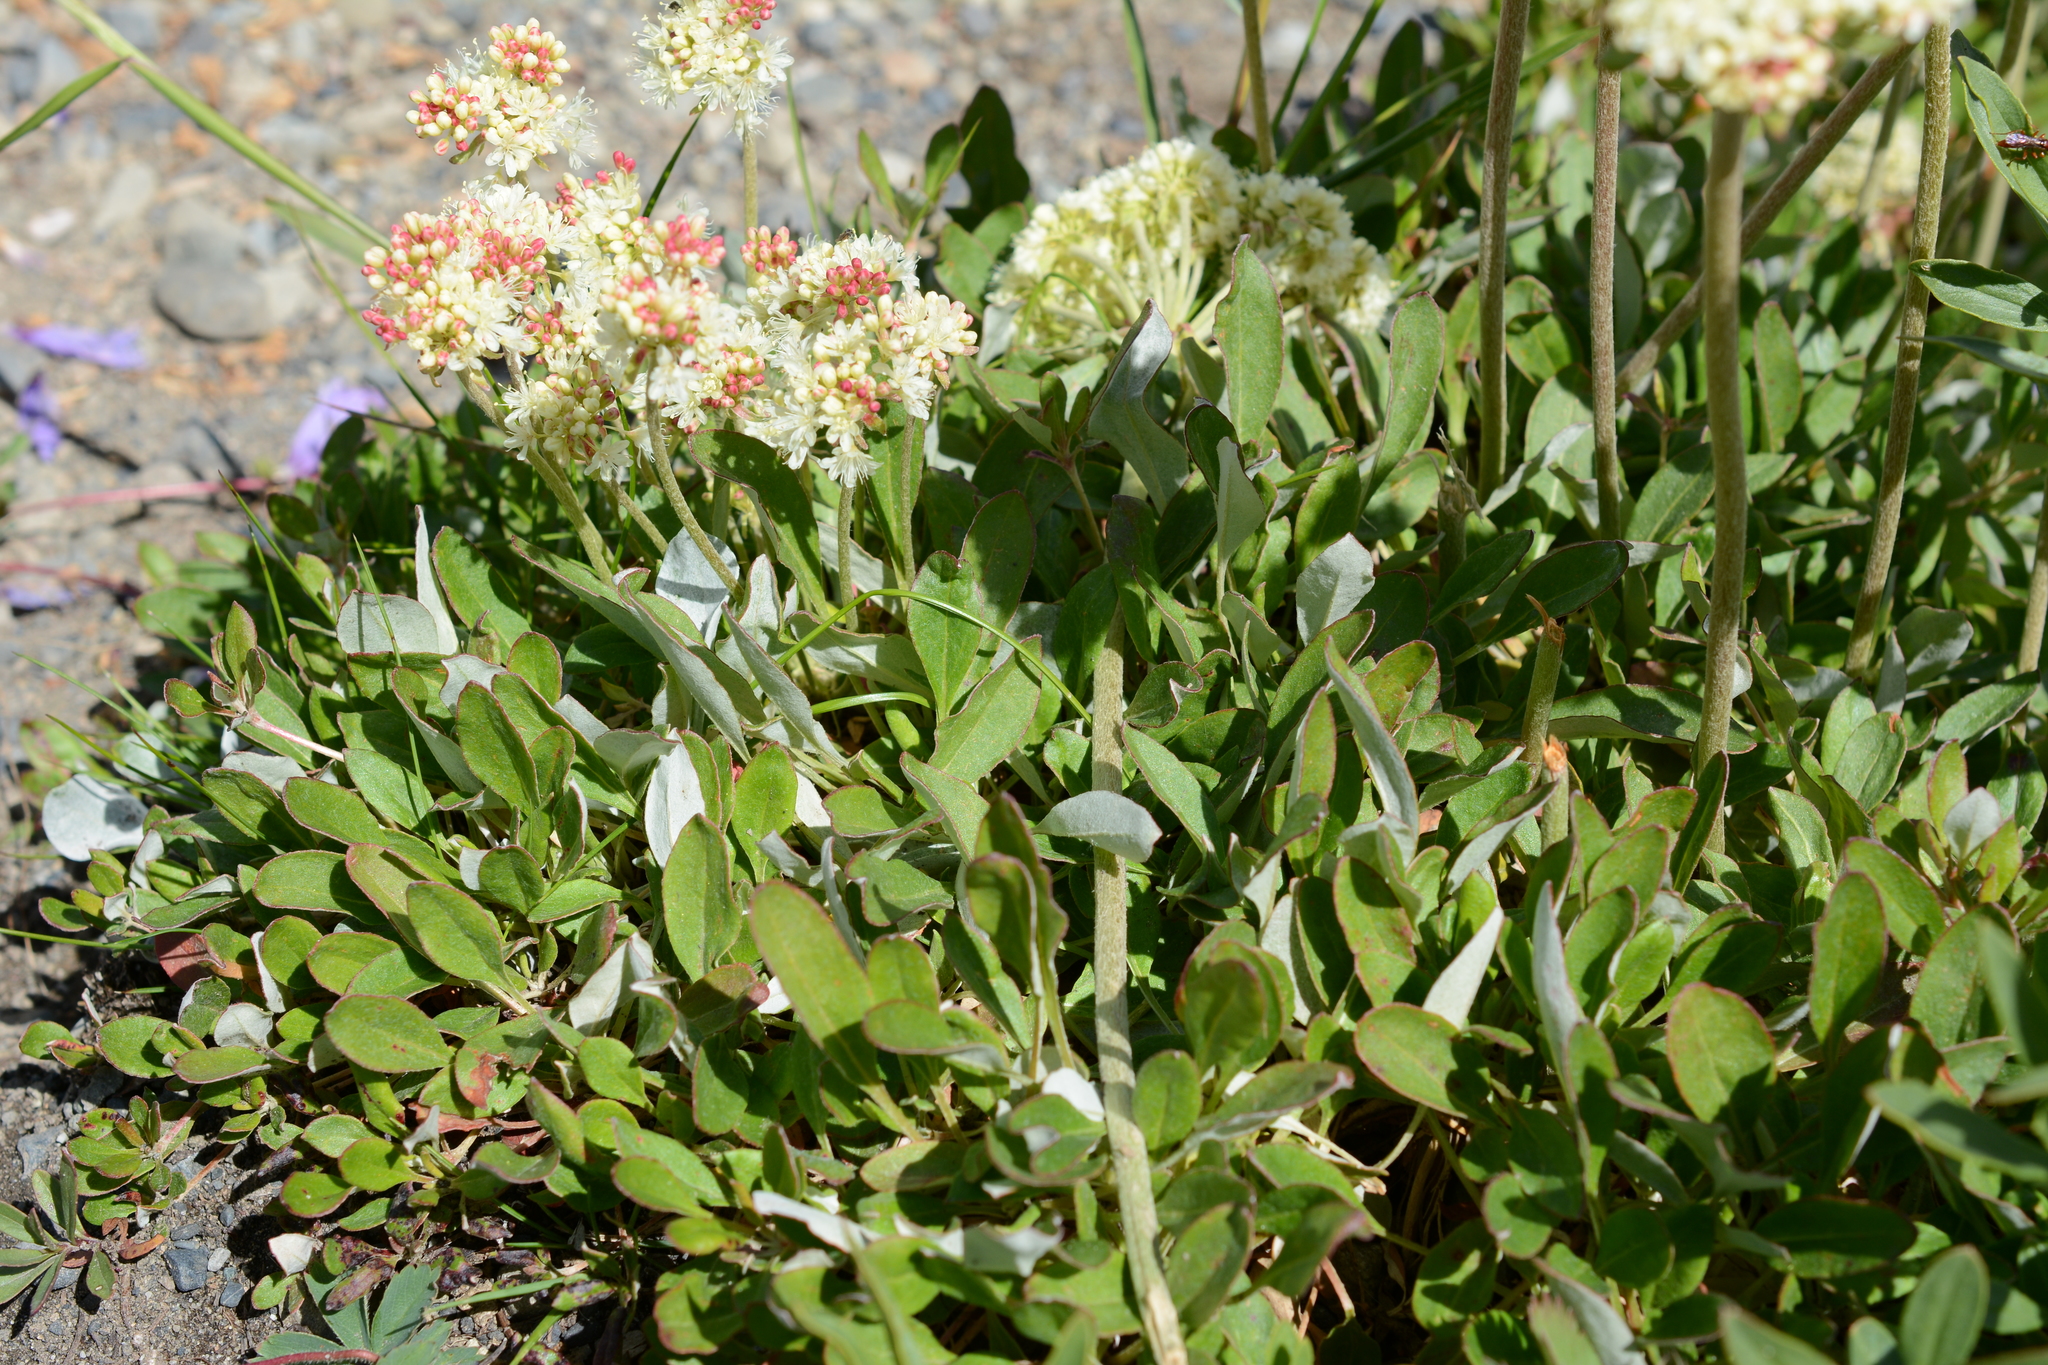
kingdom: Plantae
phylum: Tracheophyta
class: Magnoliopsida
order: Caryophyllales
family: Polygonaceae
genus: Eriogonum
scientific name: Eriogonum umbellatum
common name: Sulfur-buckwheat
